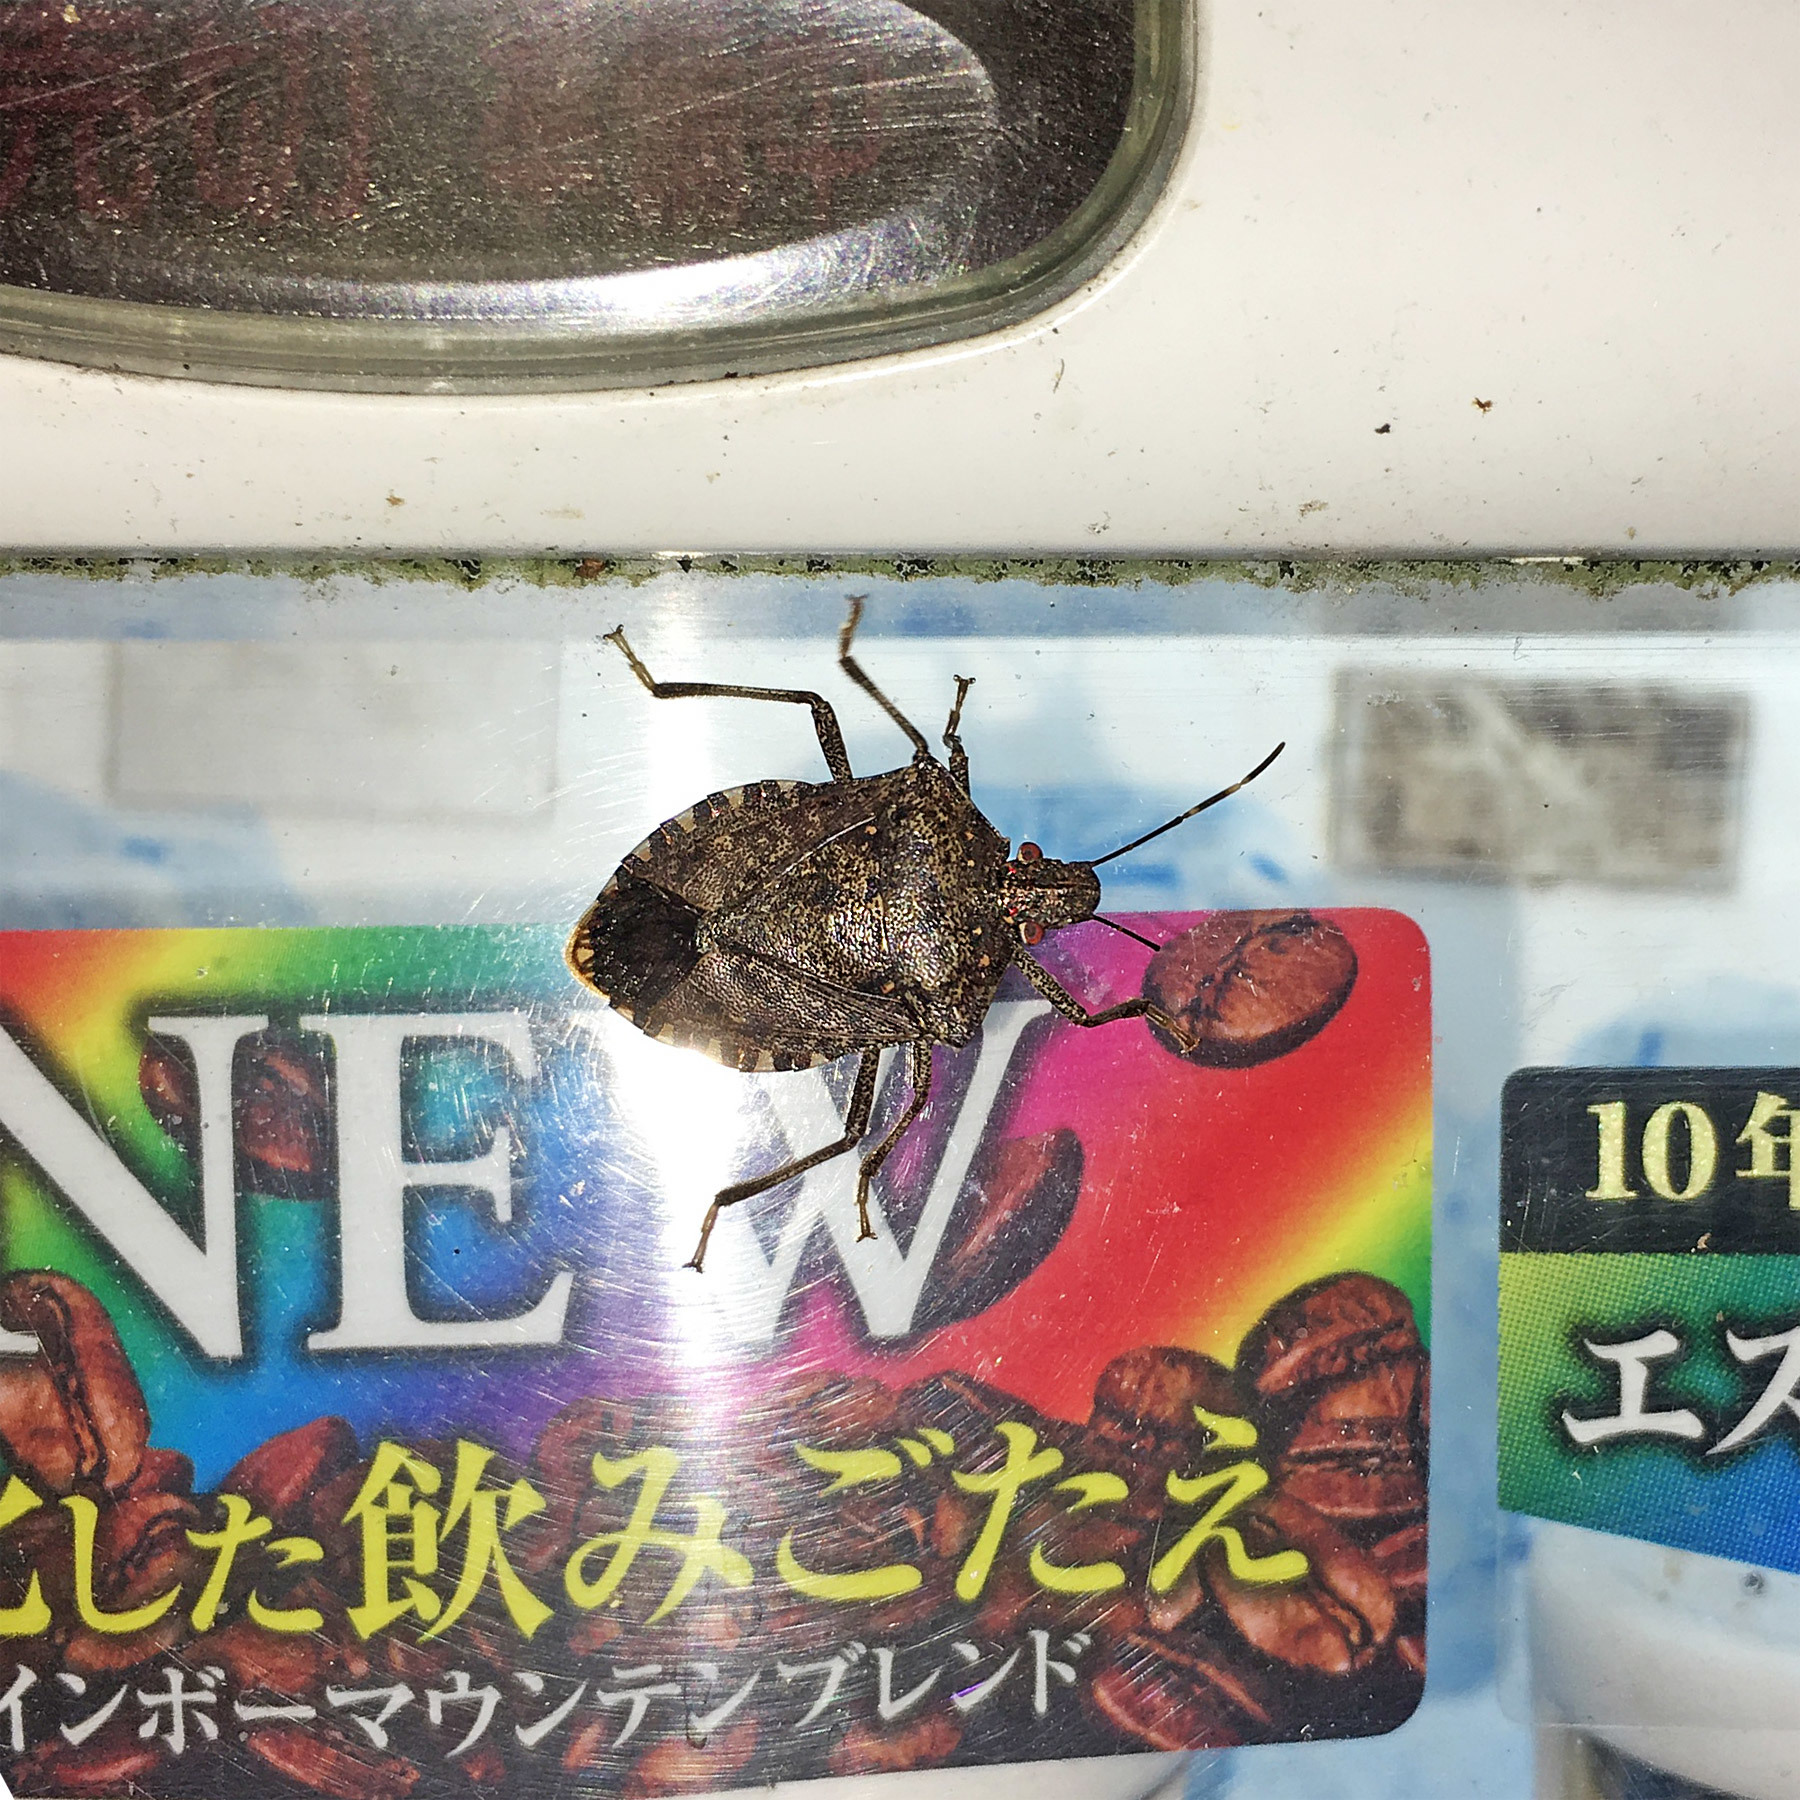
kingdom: Animalia
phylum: Arthropoda
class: Insecta
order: Hemiptera
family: Pentatomidae
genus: Halyomorpha
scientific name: Halyomorpha halys
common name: Brown marmorated stink bug
